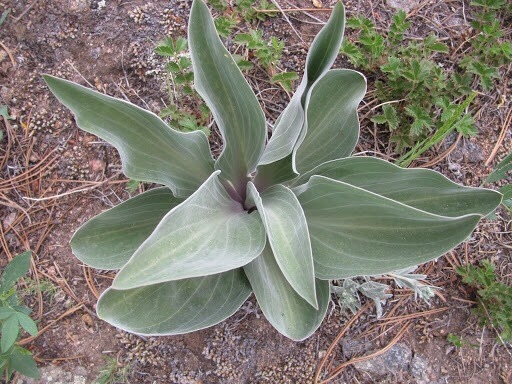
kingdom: Plantae
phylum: Tracheophyta
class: Magnoliopsida
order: Gentianales
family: Gentianaceae
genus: Frasera
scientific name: Frasera speciosa
